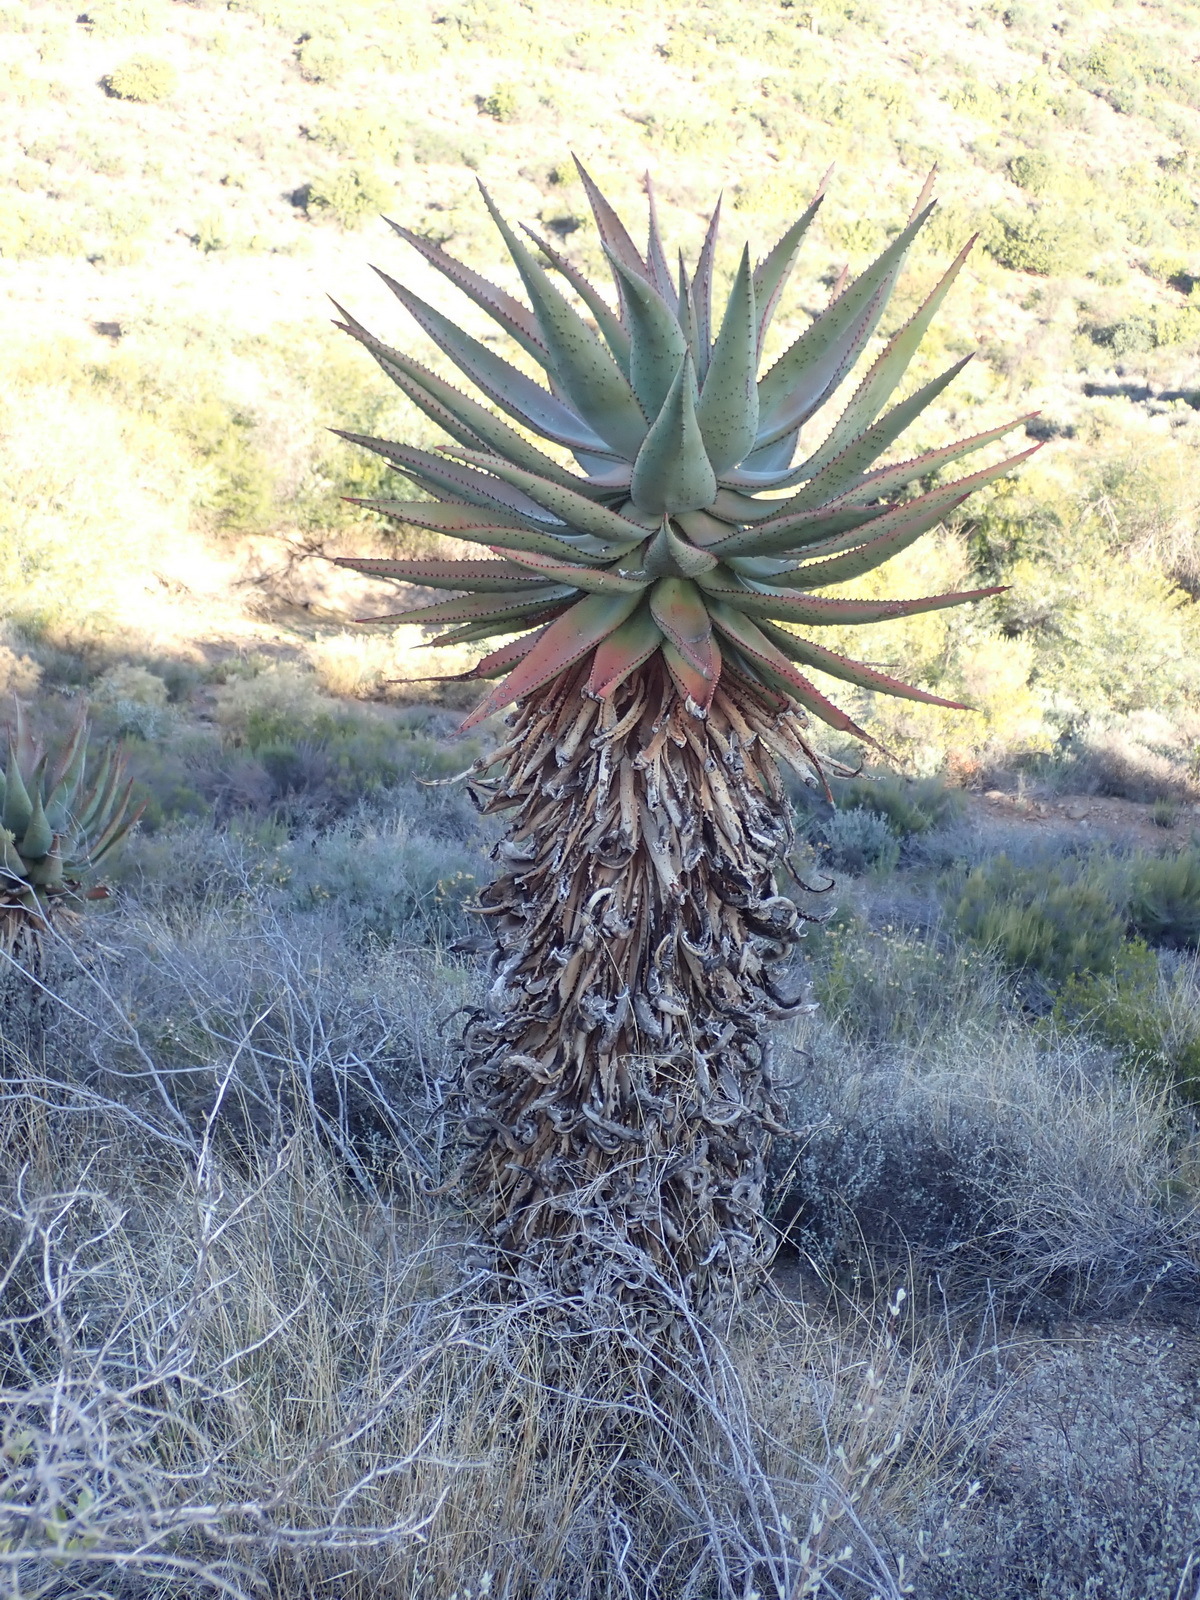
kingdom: Plantae
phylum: Tracheophyta
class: Liliopsida
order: Asparagales
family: Asphodelaceae
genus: Aloe
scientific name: Aloe ferox
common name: Bitter aloe
